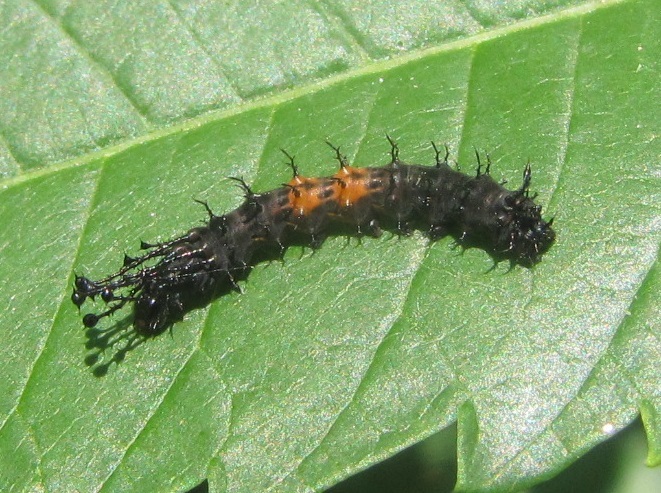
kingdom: Animalia
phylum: Arthropoda
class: Insecta
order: Lepidoptera
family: Saturniidae
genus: Citheronia
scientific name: Citheronia regalis
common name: Hickory horned devil
